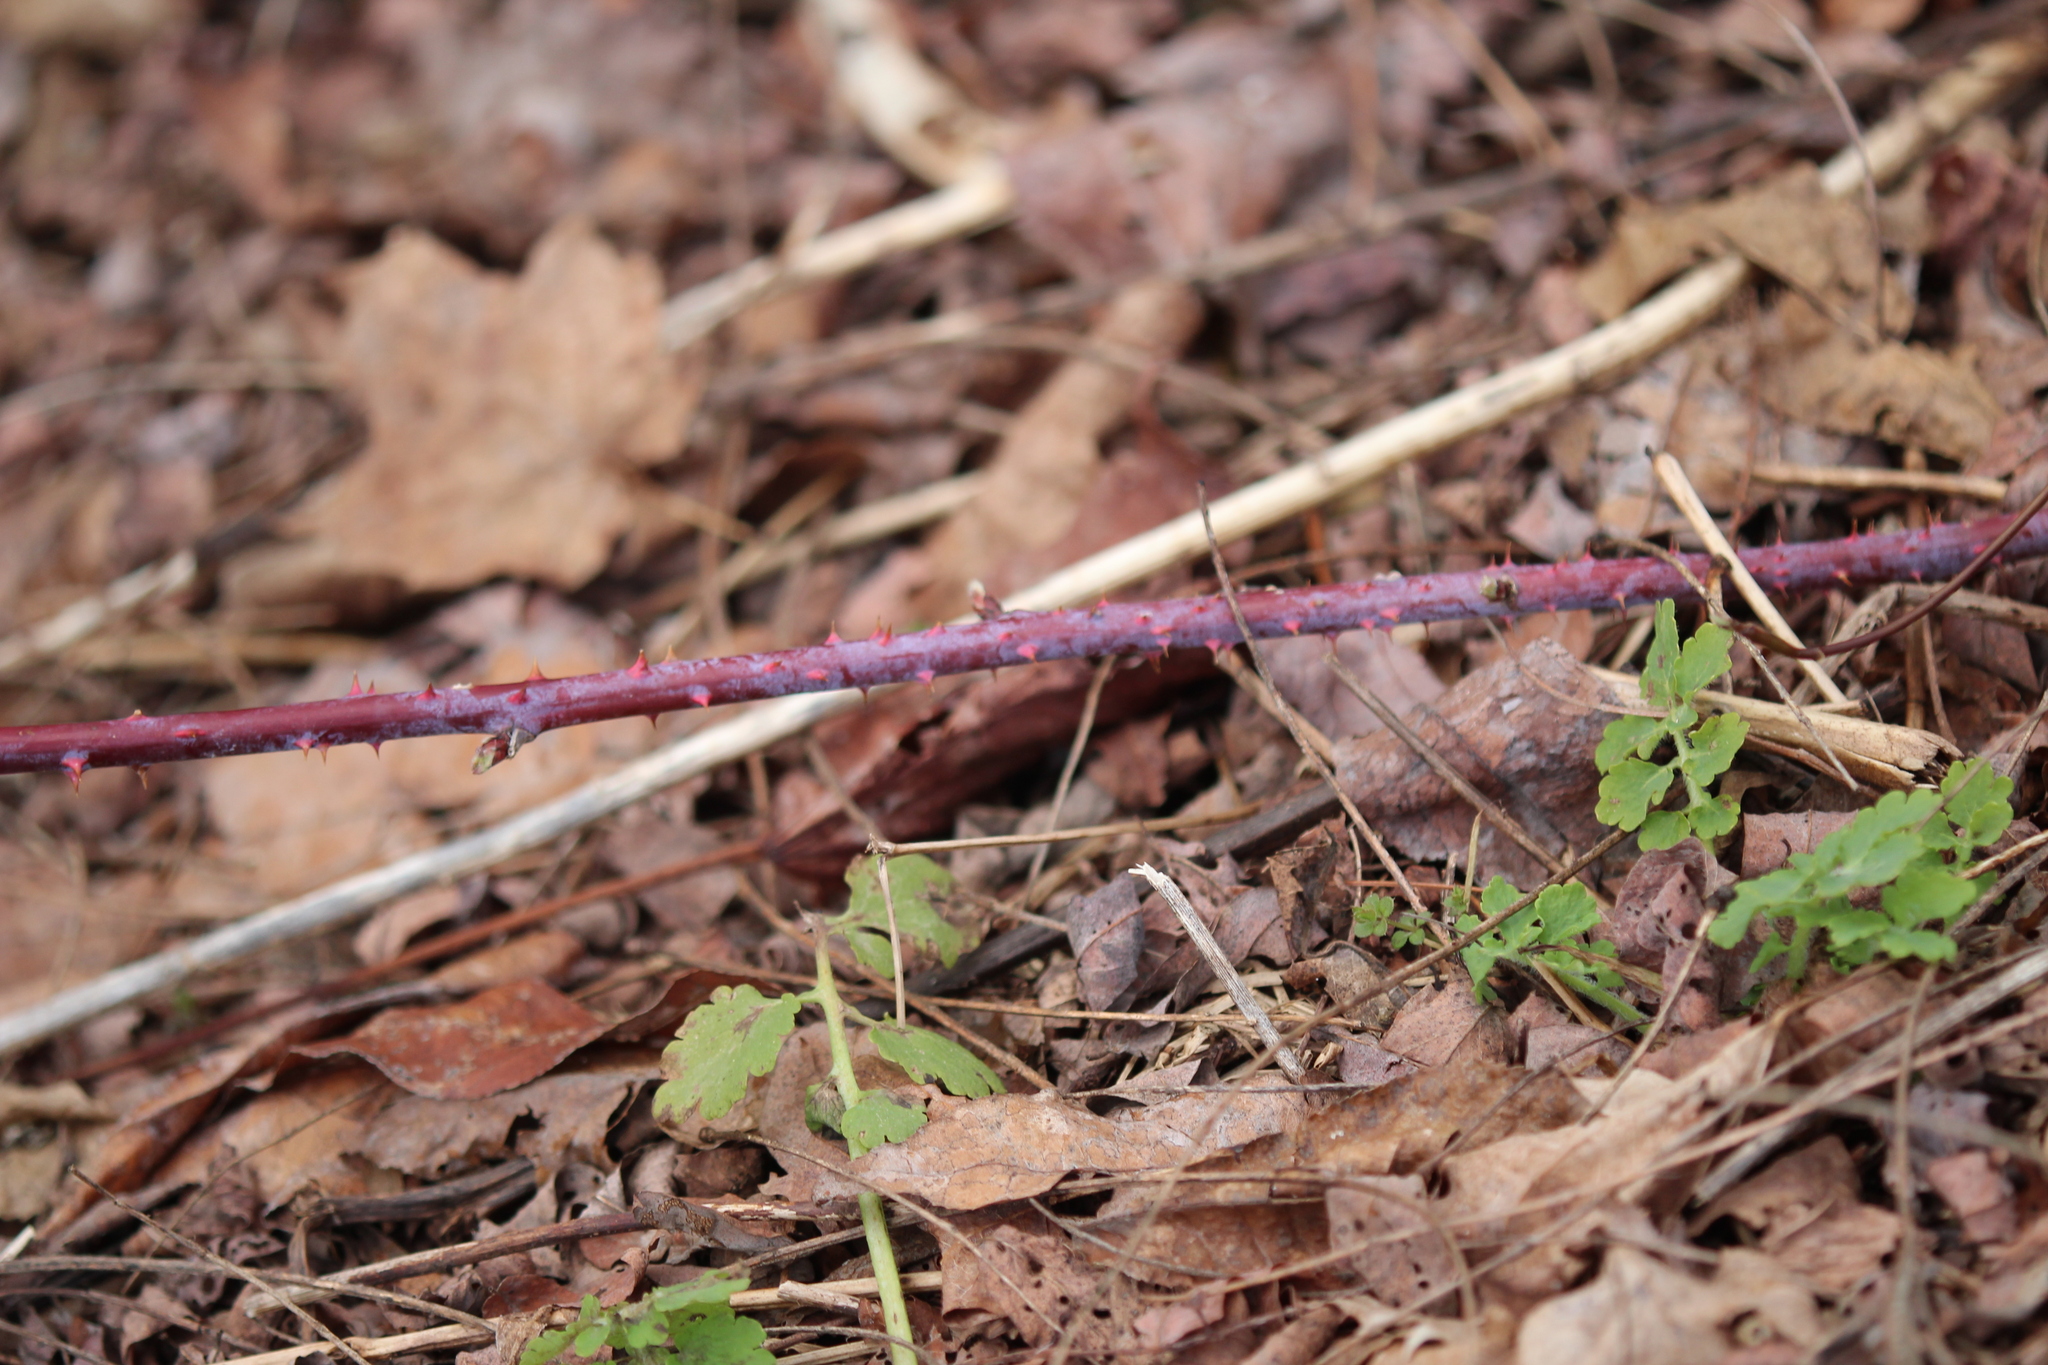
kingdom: Plantae
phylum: Tracheophyta
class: Magnoliopsida
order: Rosales
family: Rosaceae
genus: Rubus
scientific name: Rubus occidentalis
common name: Black raspberry
